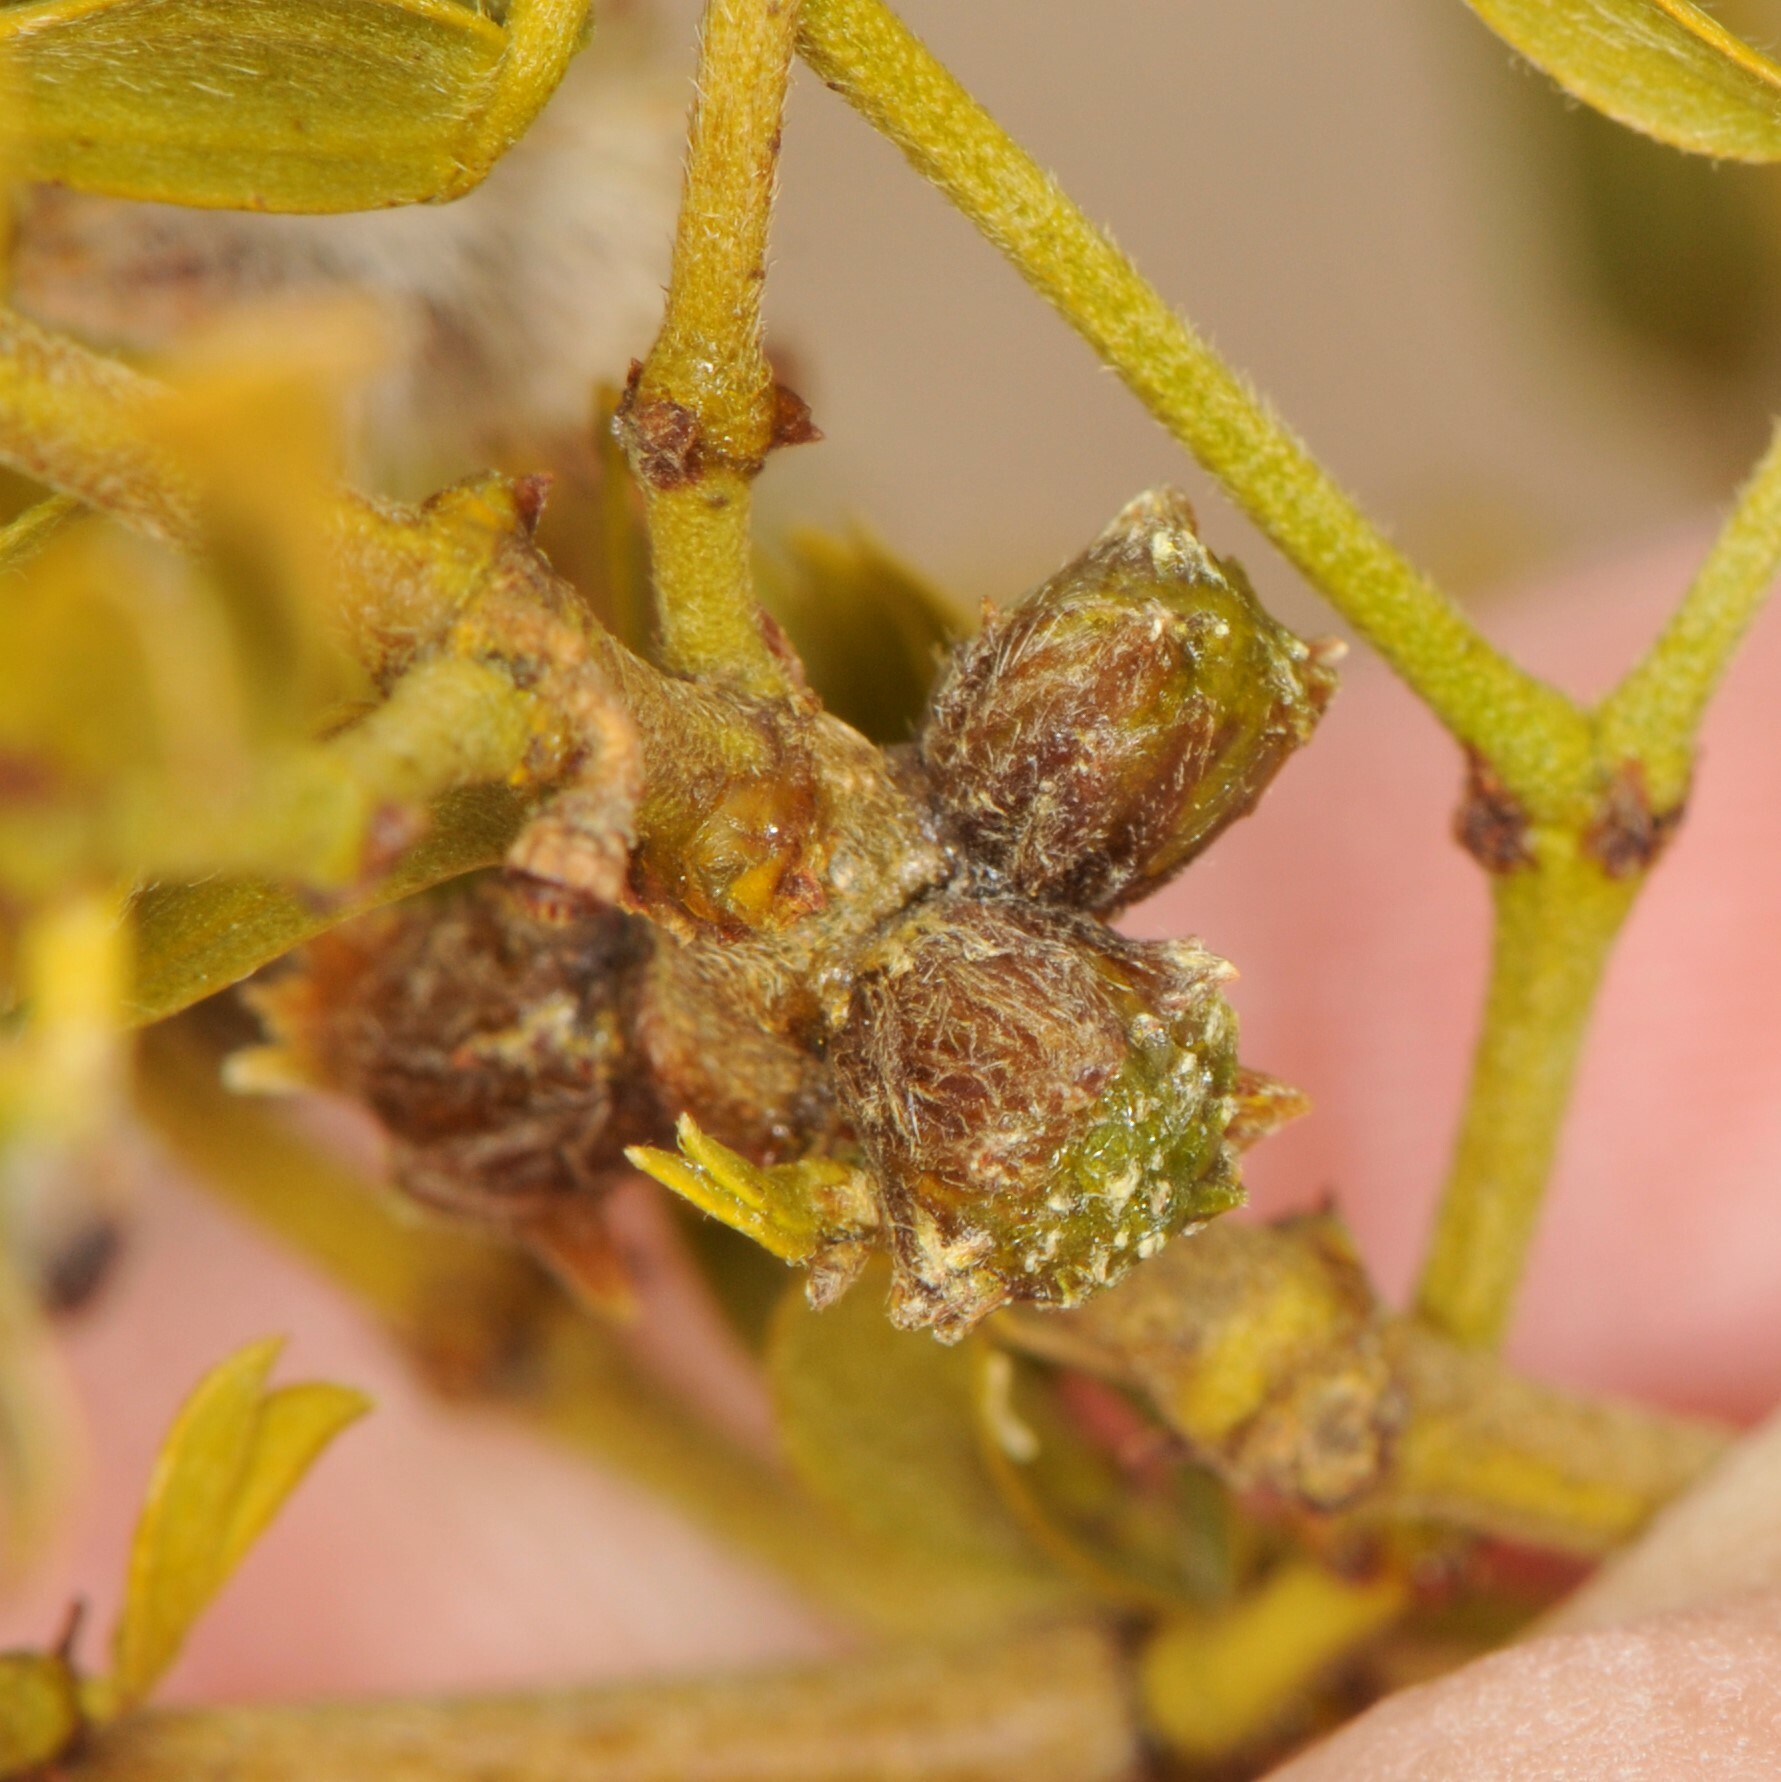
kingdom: Animalia
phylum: Arthropoda
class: Insecta
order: Diptera
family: Cecidomyiidae
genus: Asphondylia
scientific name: Asphondylia resinosa
